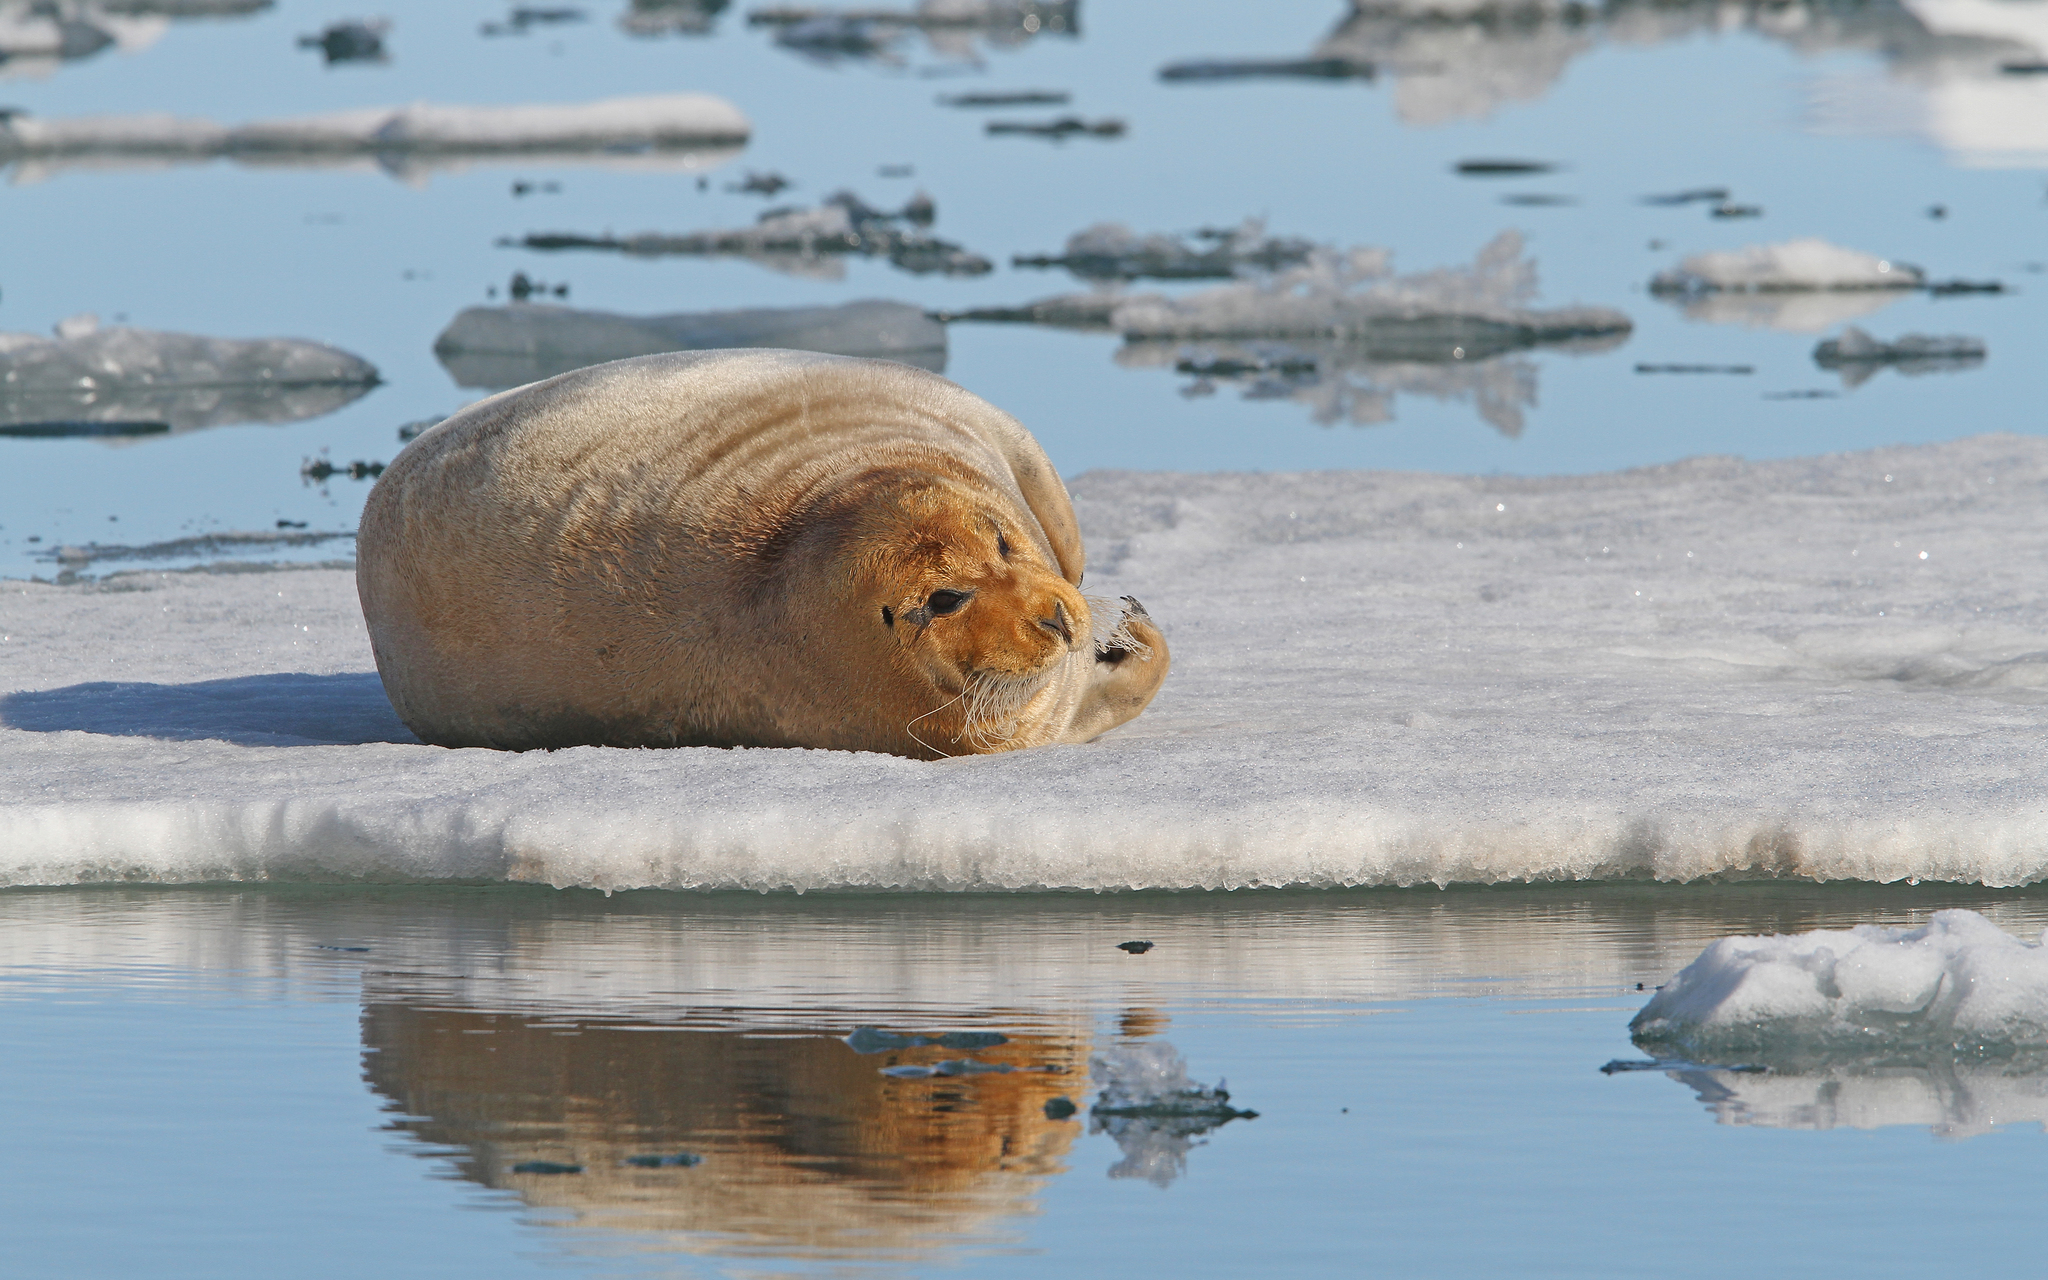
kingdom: Animalia
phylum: Chordata
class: Mammalia
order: Carnivora
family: Phocidae
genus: Erignathus
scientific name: Erignathus barbatus
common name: Bearded seal
